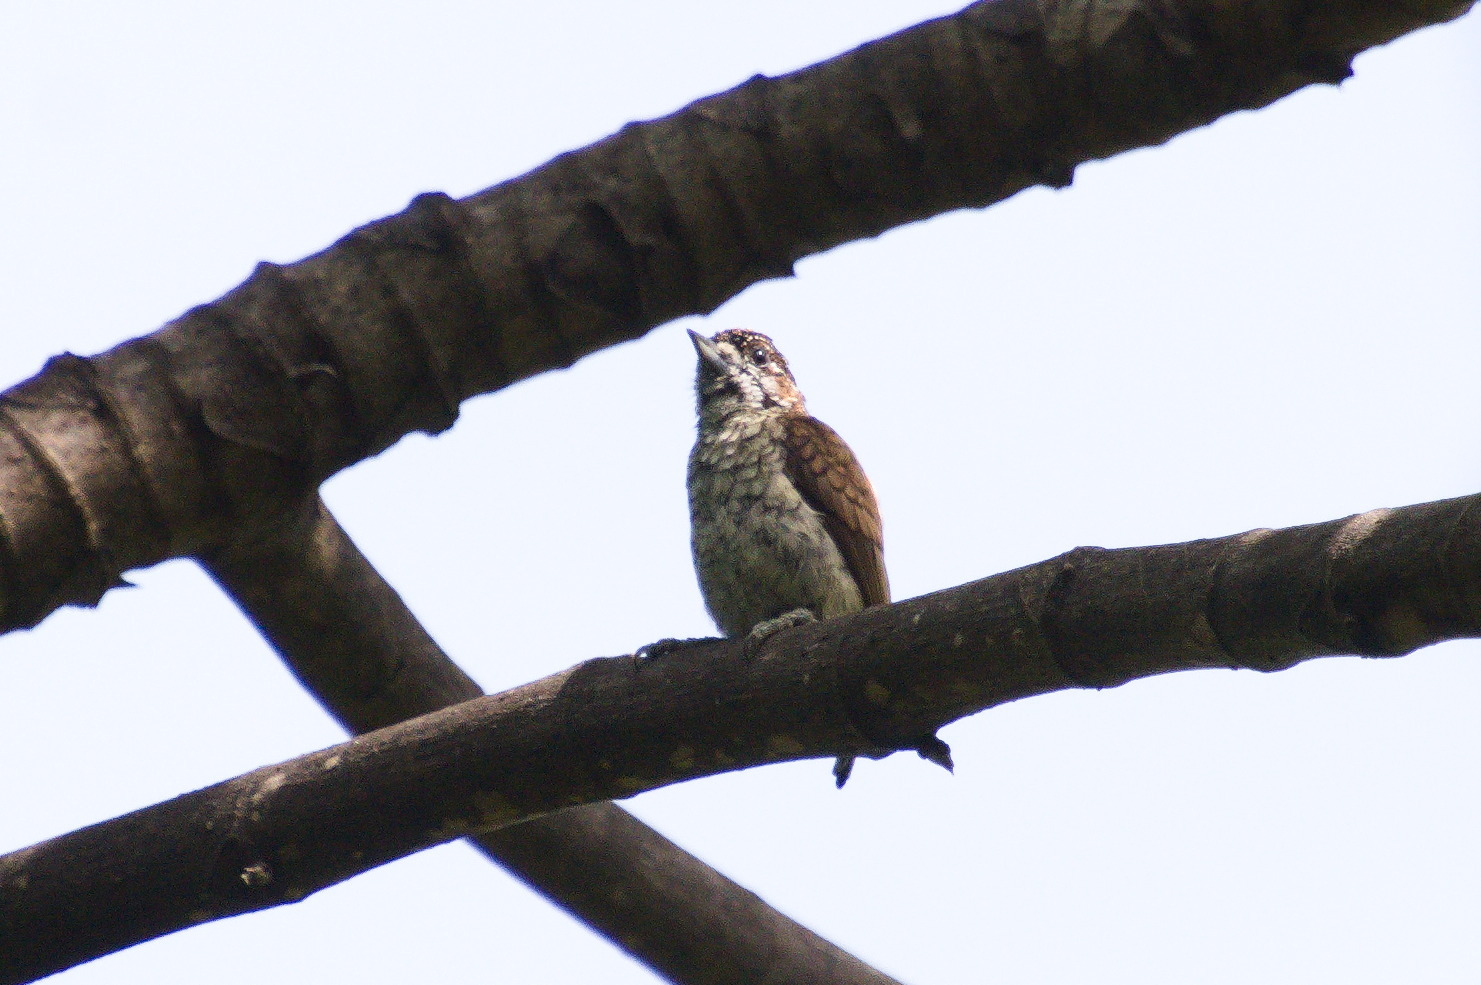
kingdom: Animalia
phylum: Chordata
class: Aves
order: Piciformes
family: Picidae
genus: Picumnus
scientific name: Picumnus squamulatus
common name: Scaled piculet
